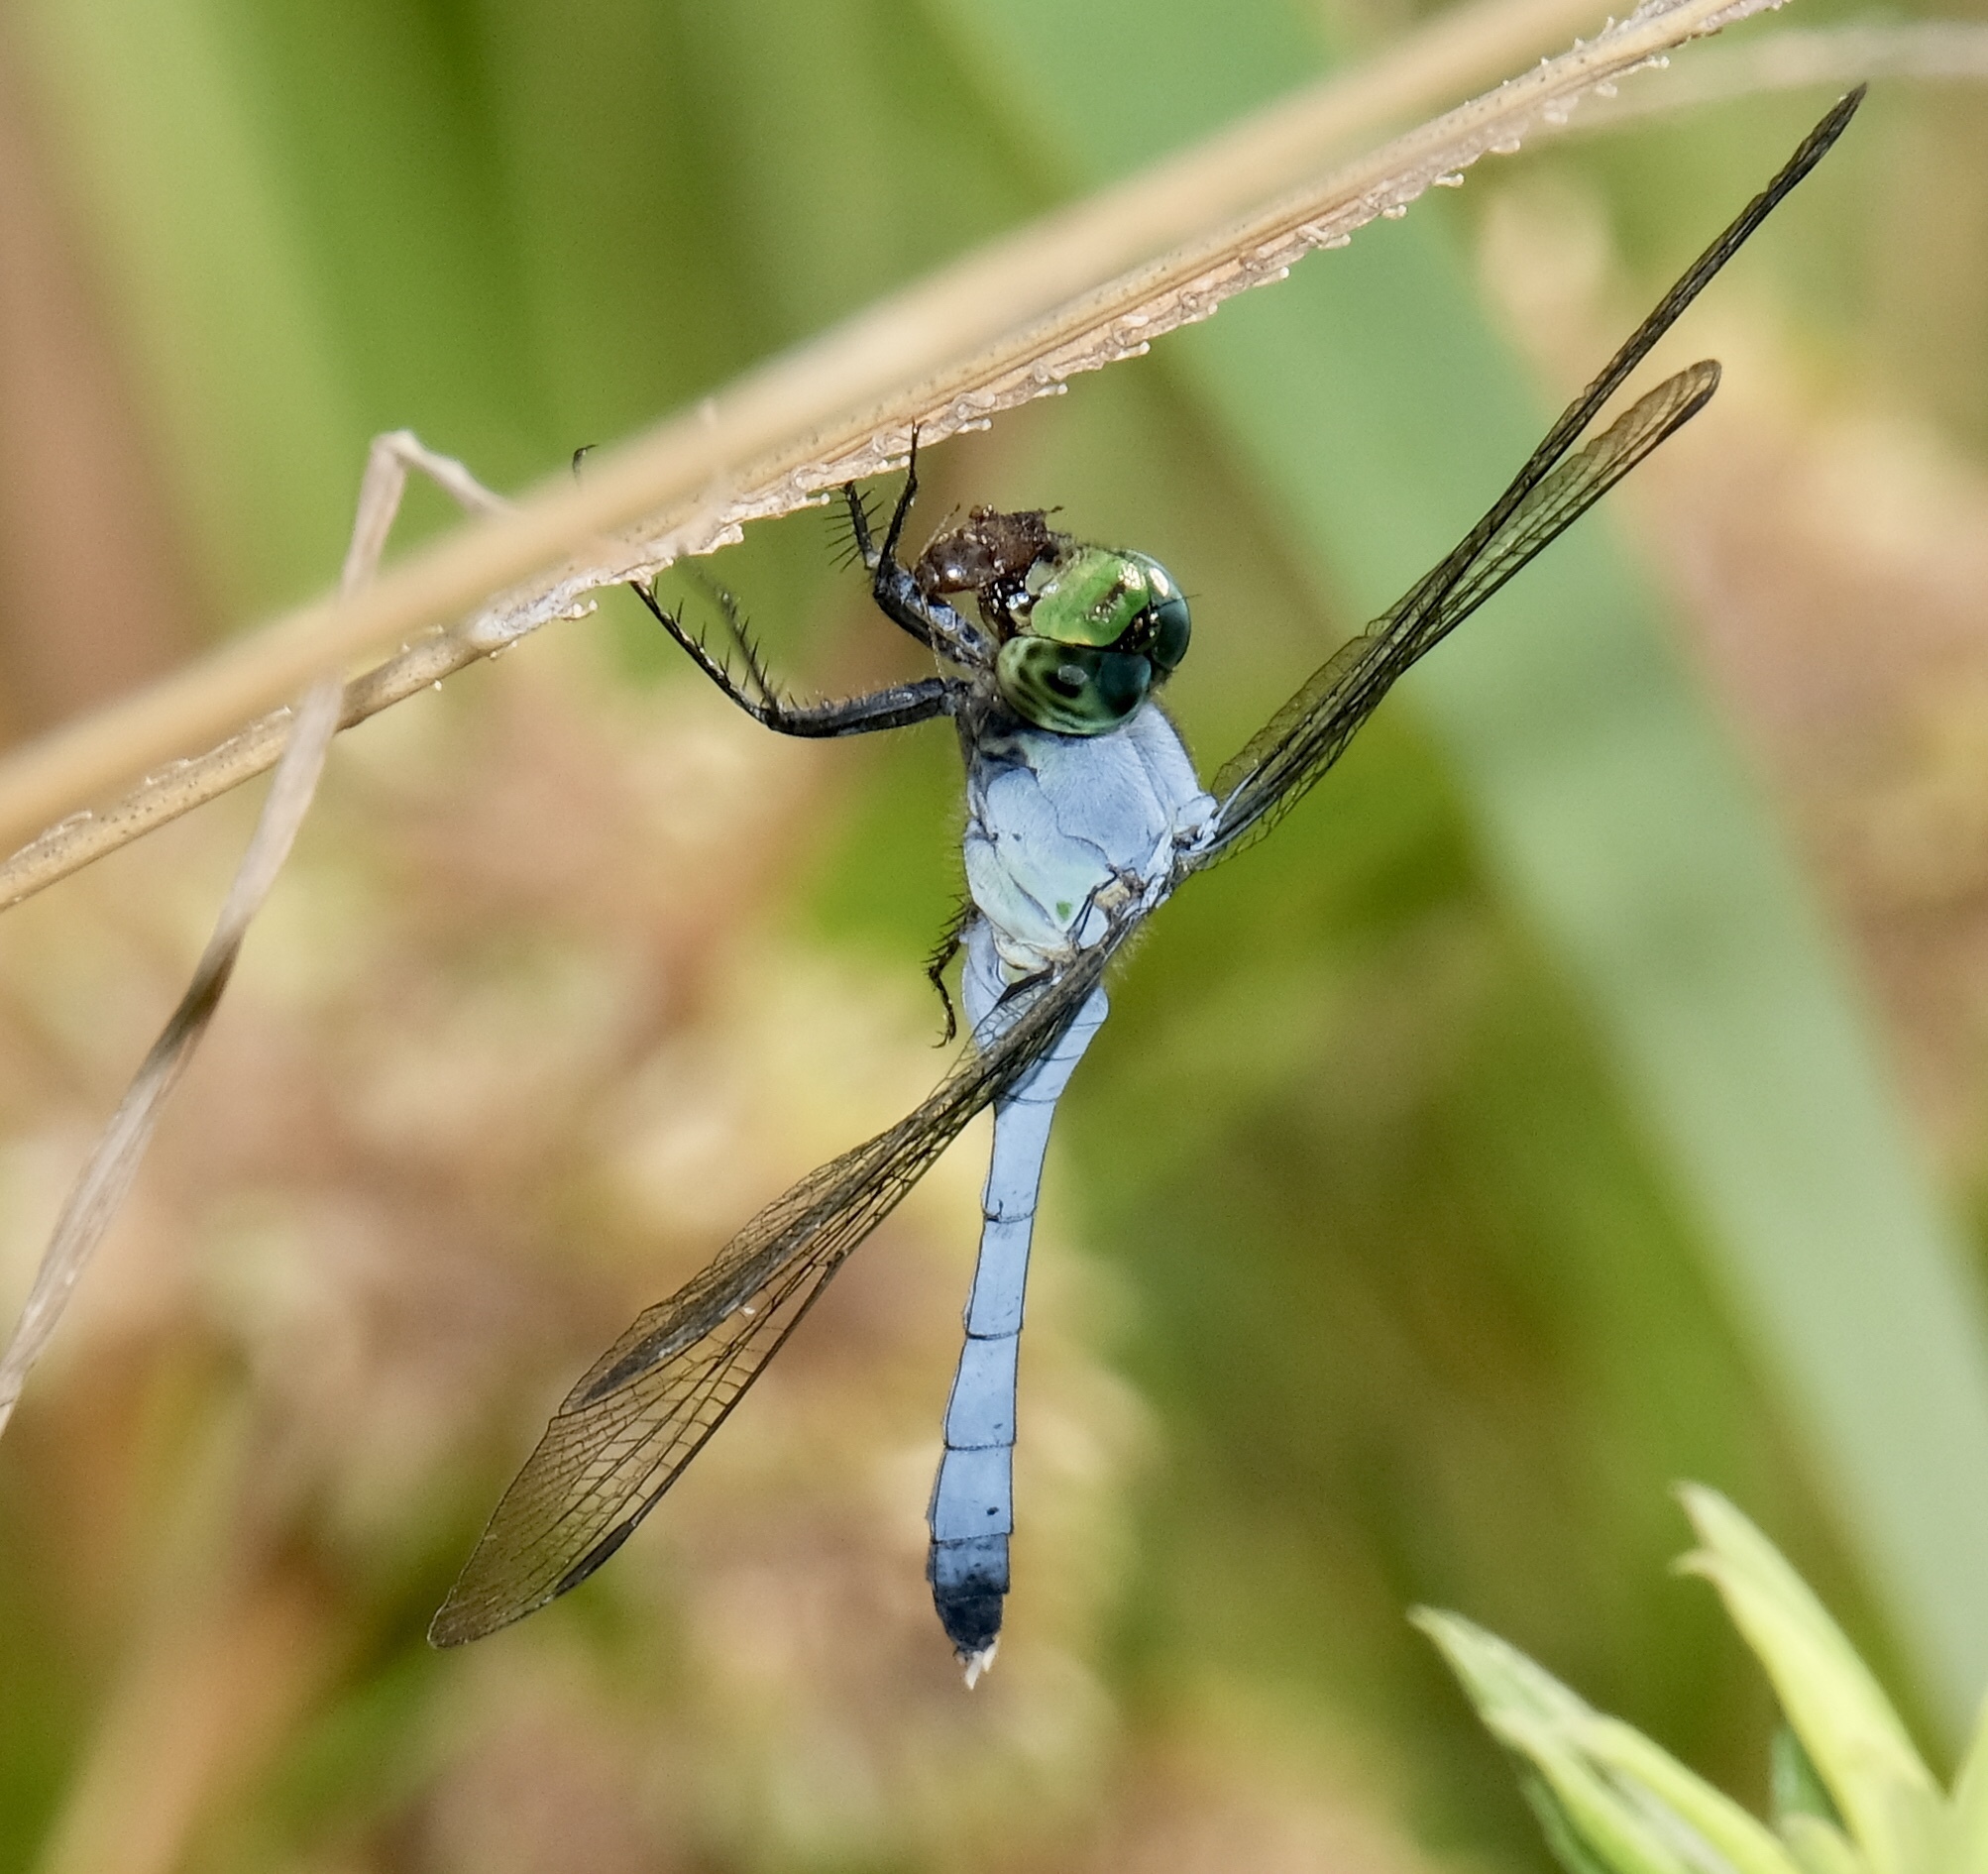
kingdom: Animalia
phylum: Arthropoda
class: Insecta
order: Odonata
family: Libellulidae
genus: Erythemis
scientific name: Erythemis simplicicollis
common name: Eastern pondhawk
